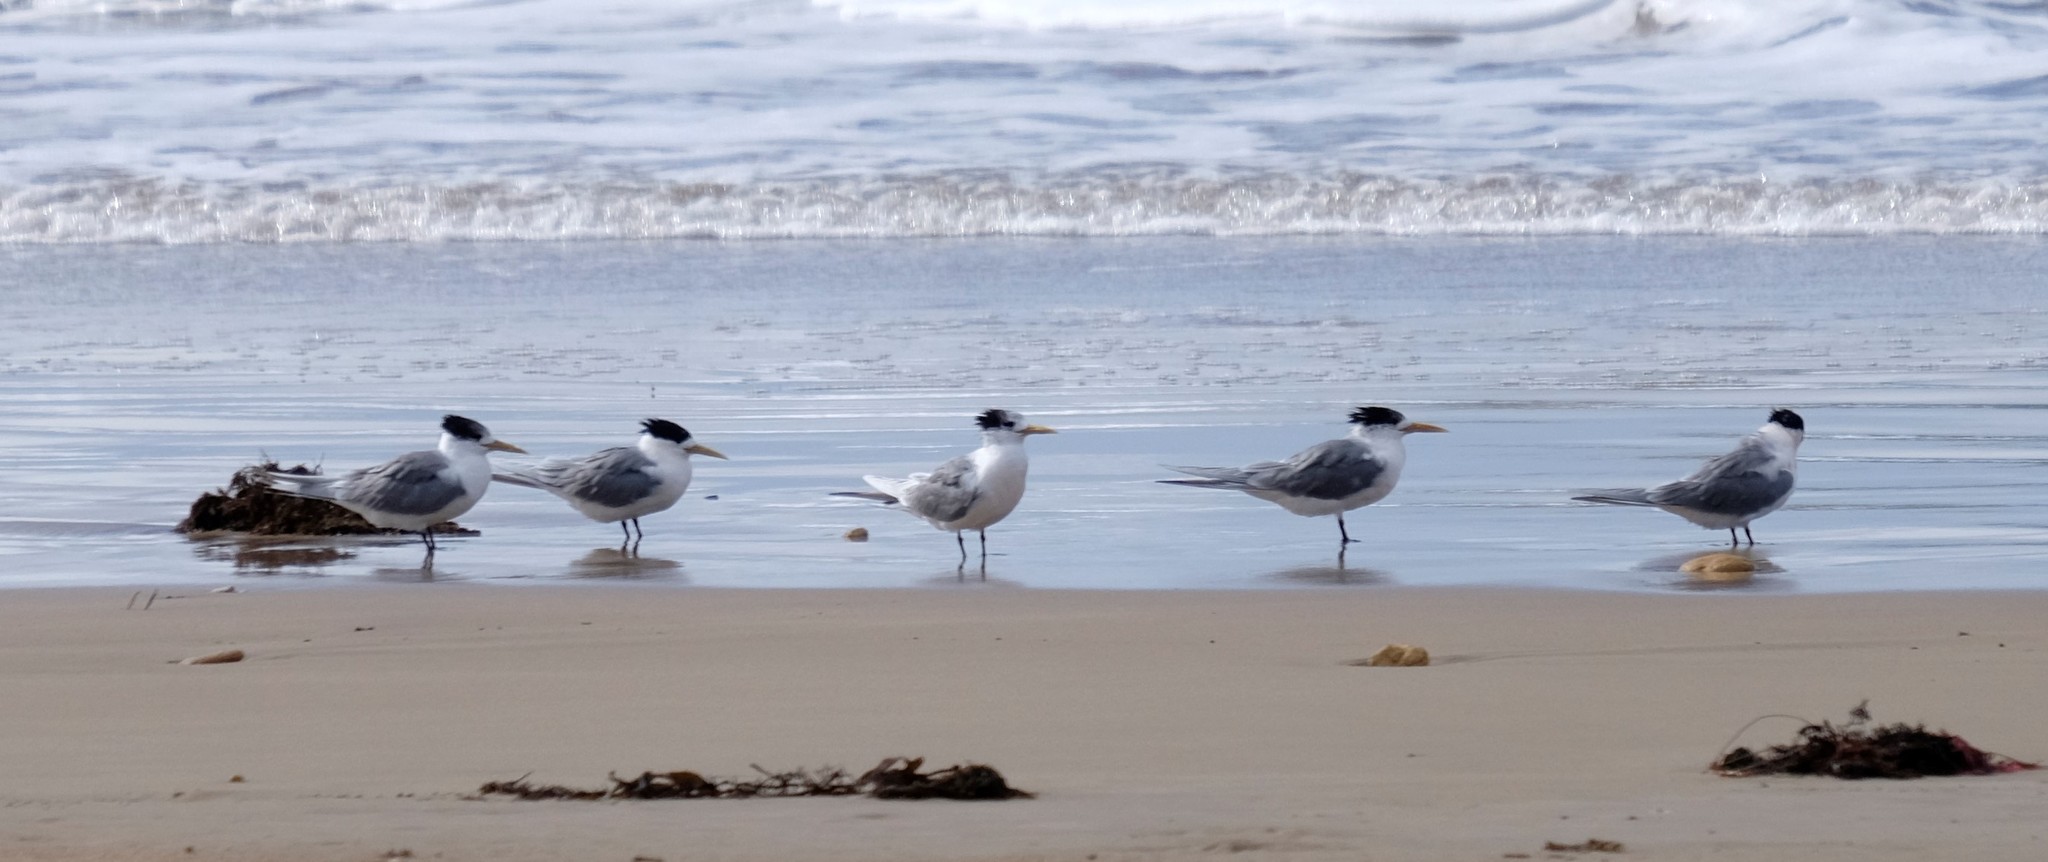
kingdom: Animalia
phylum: Chordata
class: Aves
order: Charadriiformes
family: Laridae
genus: Thalasseus
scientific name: Thalasseus bergii
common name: Greater crested tern
